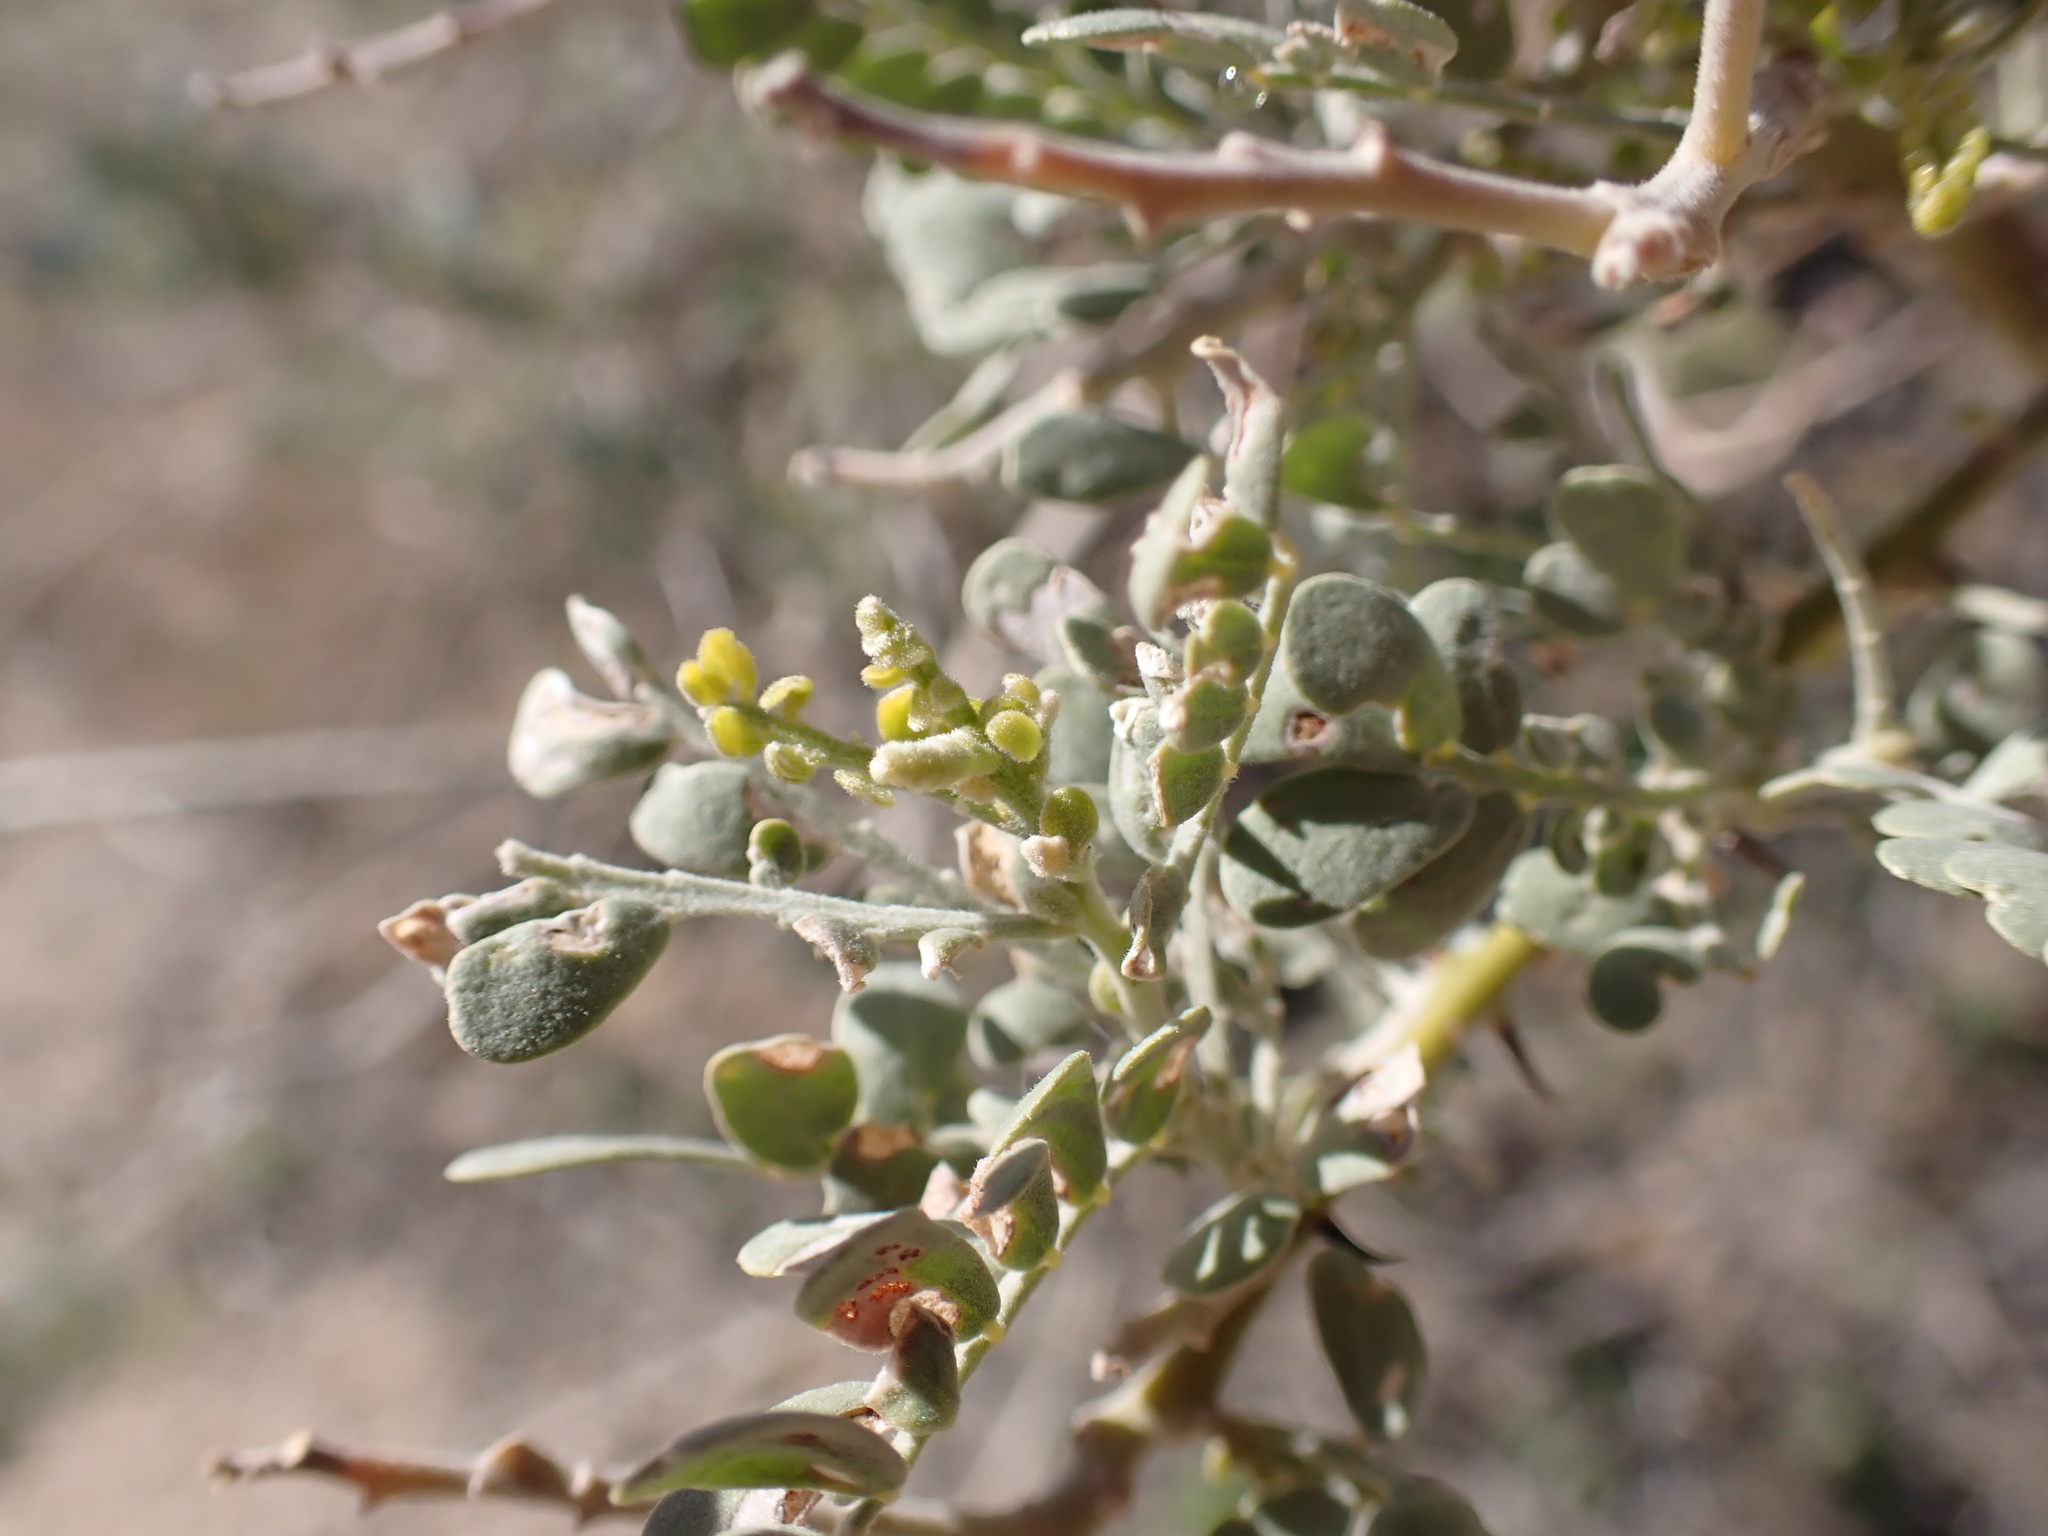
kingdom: Plantae
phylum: Tracheophyta
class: Magnoliopsida
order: Fabales
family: Fabaceae
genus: Olneya
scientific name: Olneya tesota
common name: Desert ironwood
